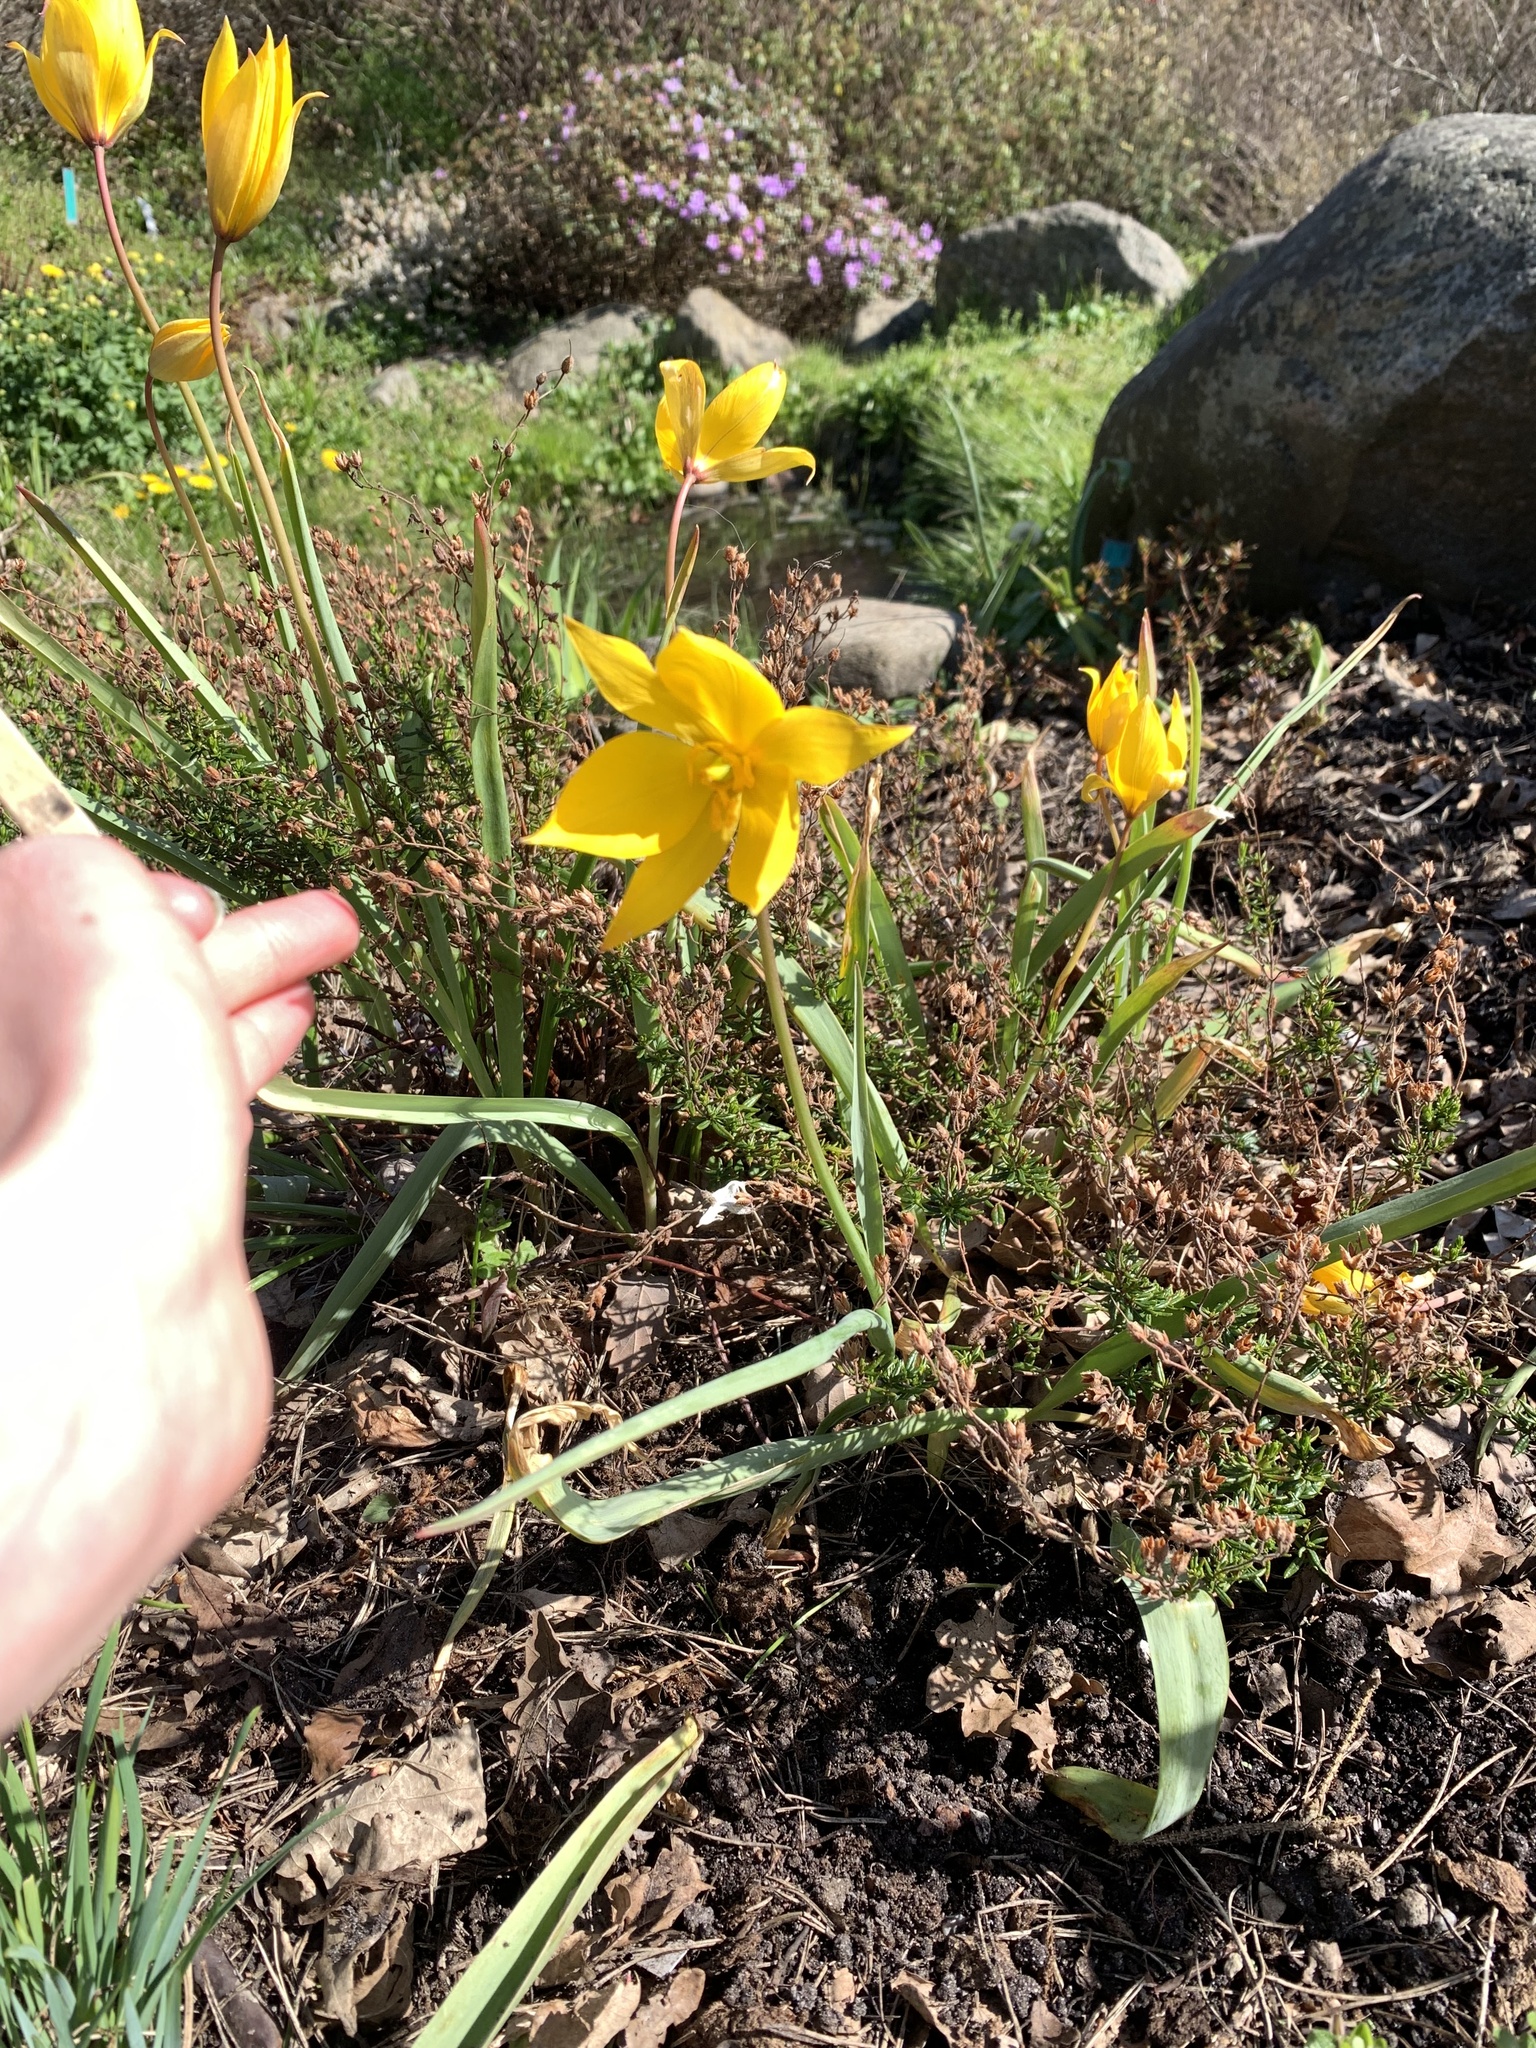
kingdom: Plantae
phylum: Tracheophyta
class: Liliopsida
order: Liliales
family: Liliaceae
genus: Tulipa
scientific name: Tulipa sylvestris
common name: Wild tulip
